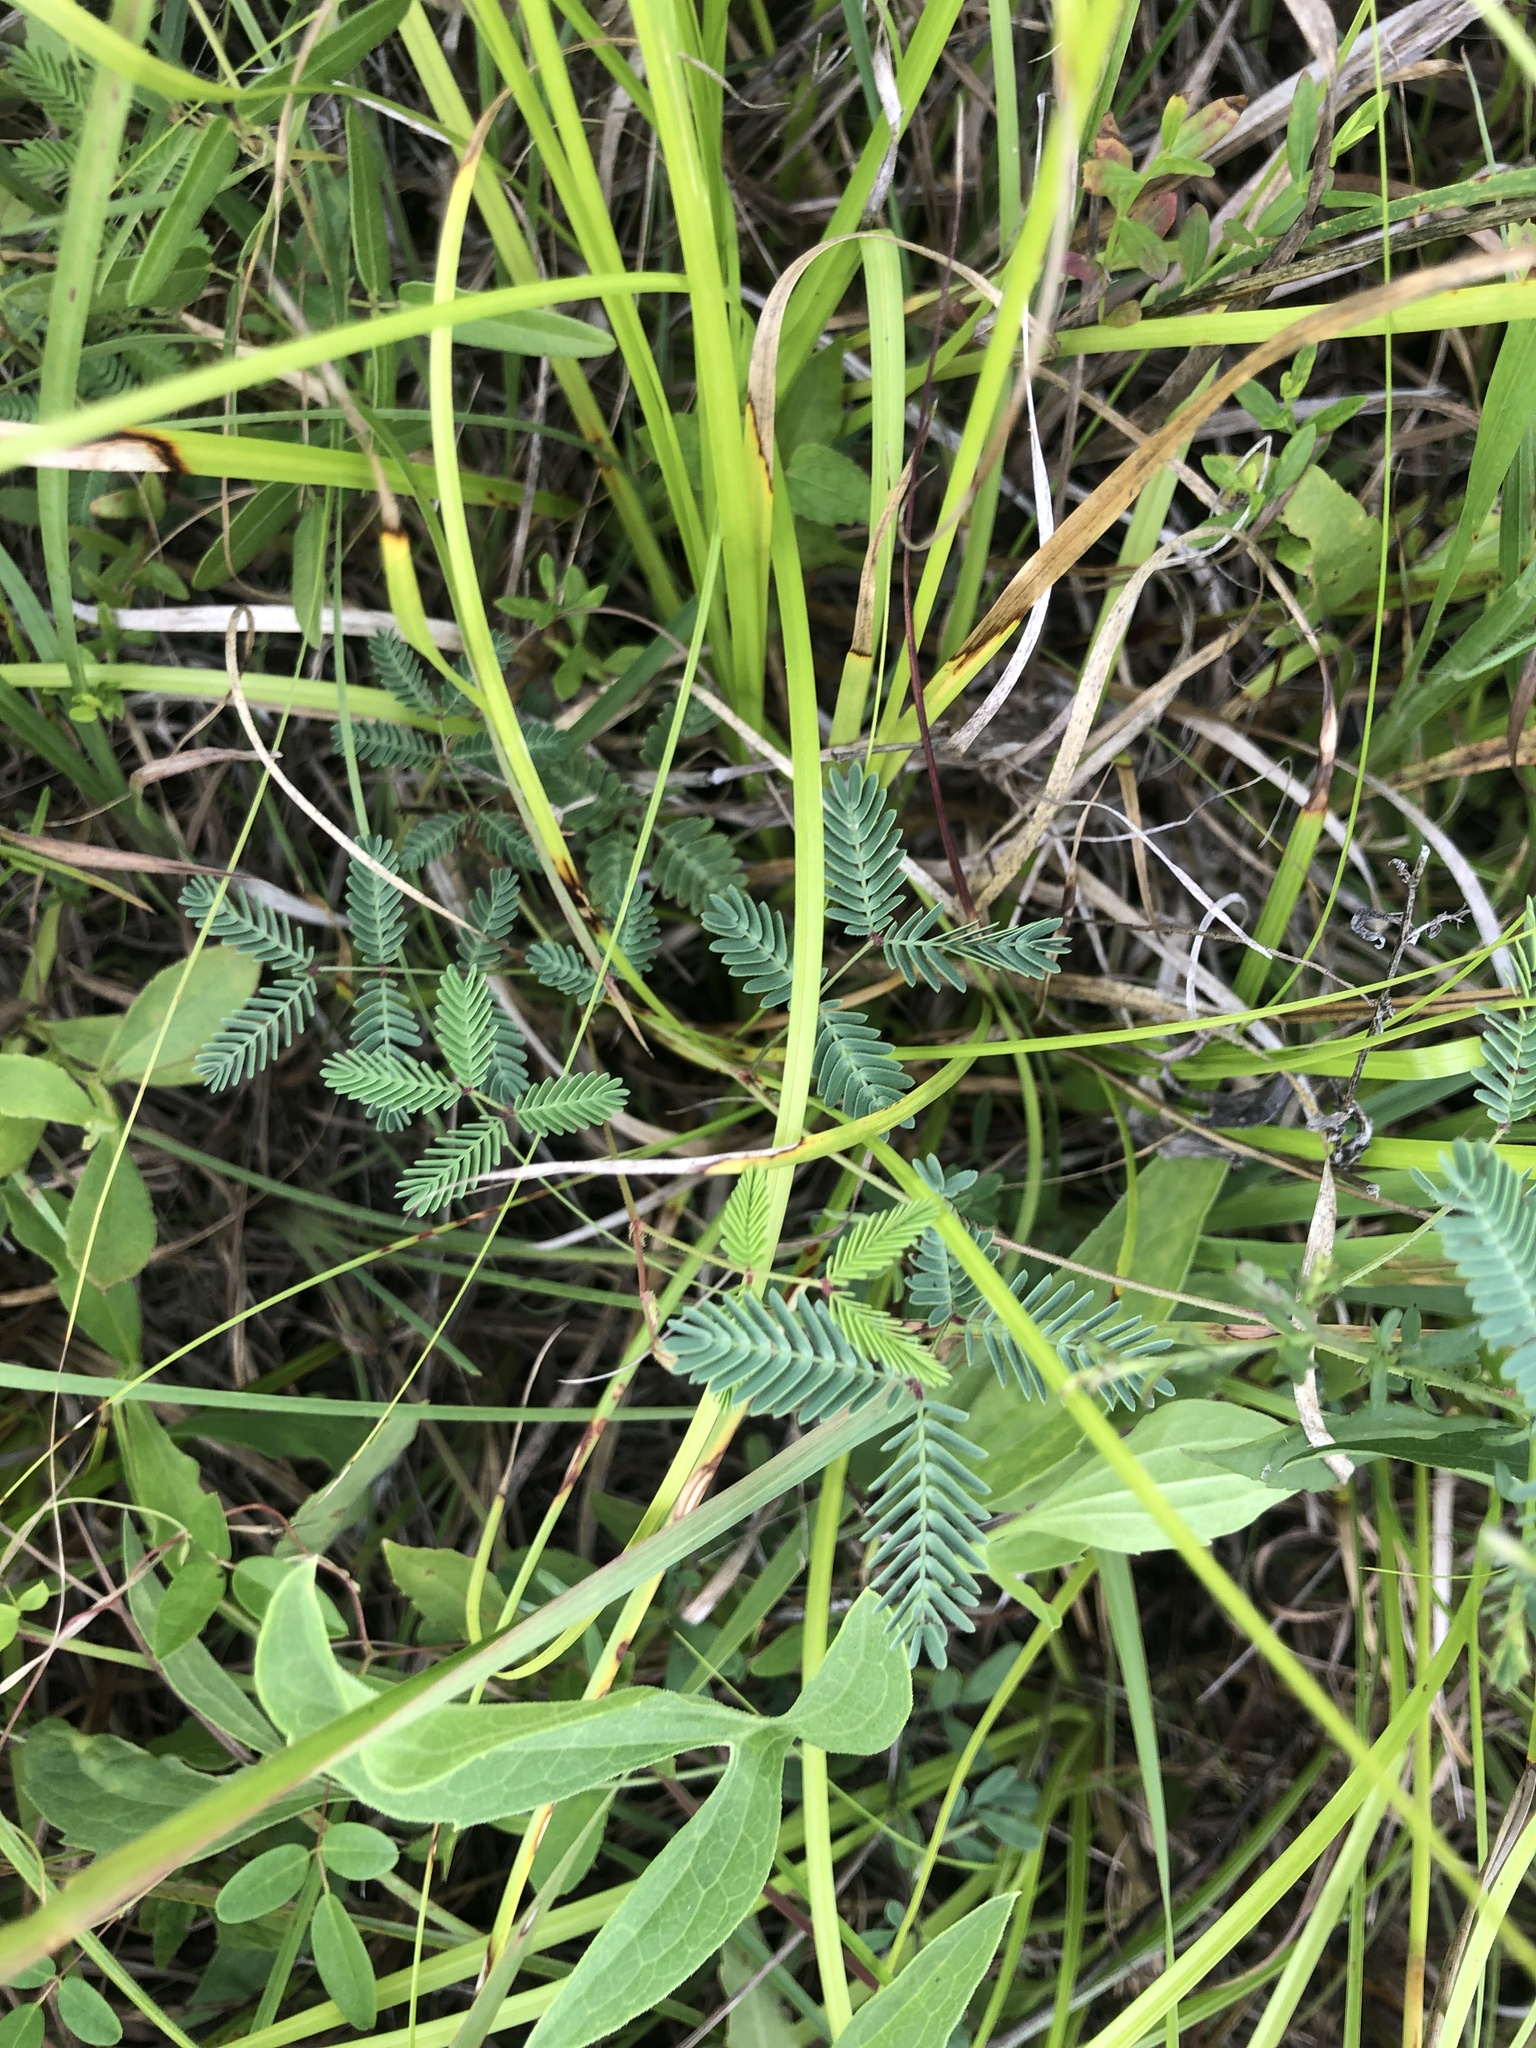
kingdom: Plantae
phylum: Tracheophyta
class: Magnoliopsida
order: Fabales
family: Fabaceae
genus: Neptunia
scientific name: Neptunia lutea
